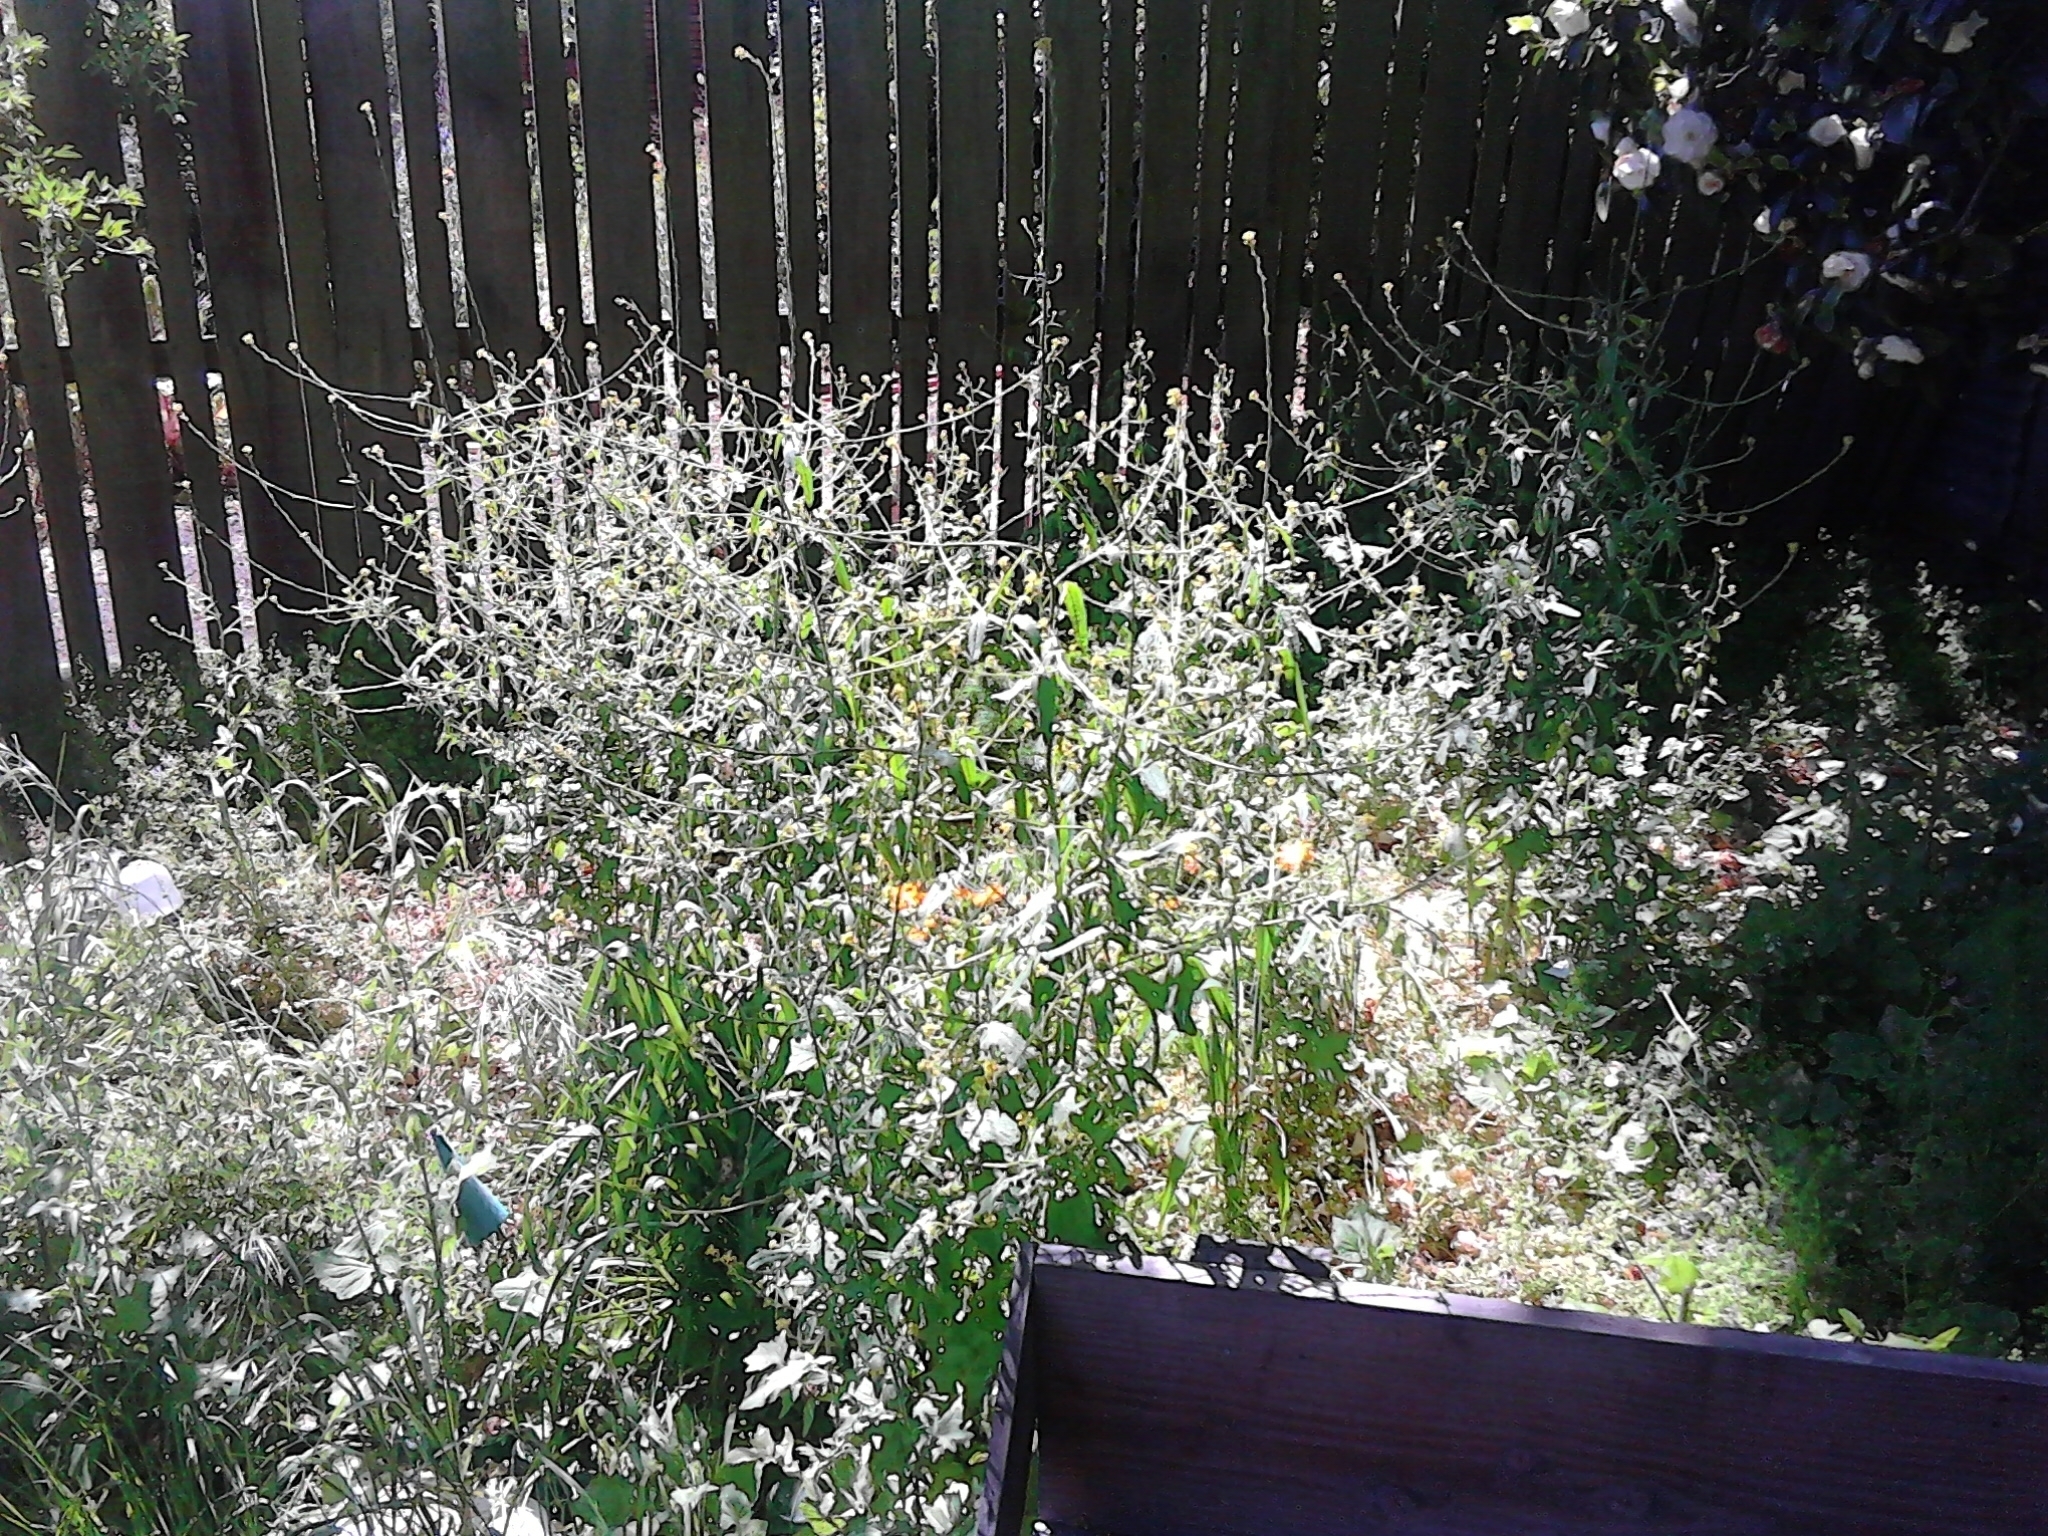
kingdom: Plantae
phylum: Tracheophyta
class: Magnoliopsida
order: Brassicales
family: Brassicaceae
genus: Sisymbrium
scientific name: Sisymbrium officinale
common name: Hedge mustard
